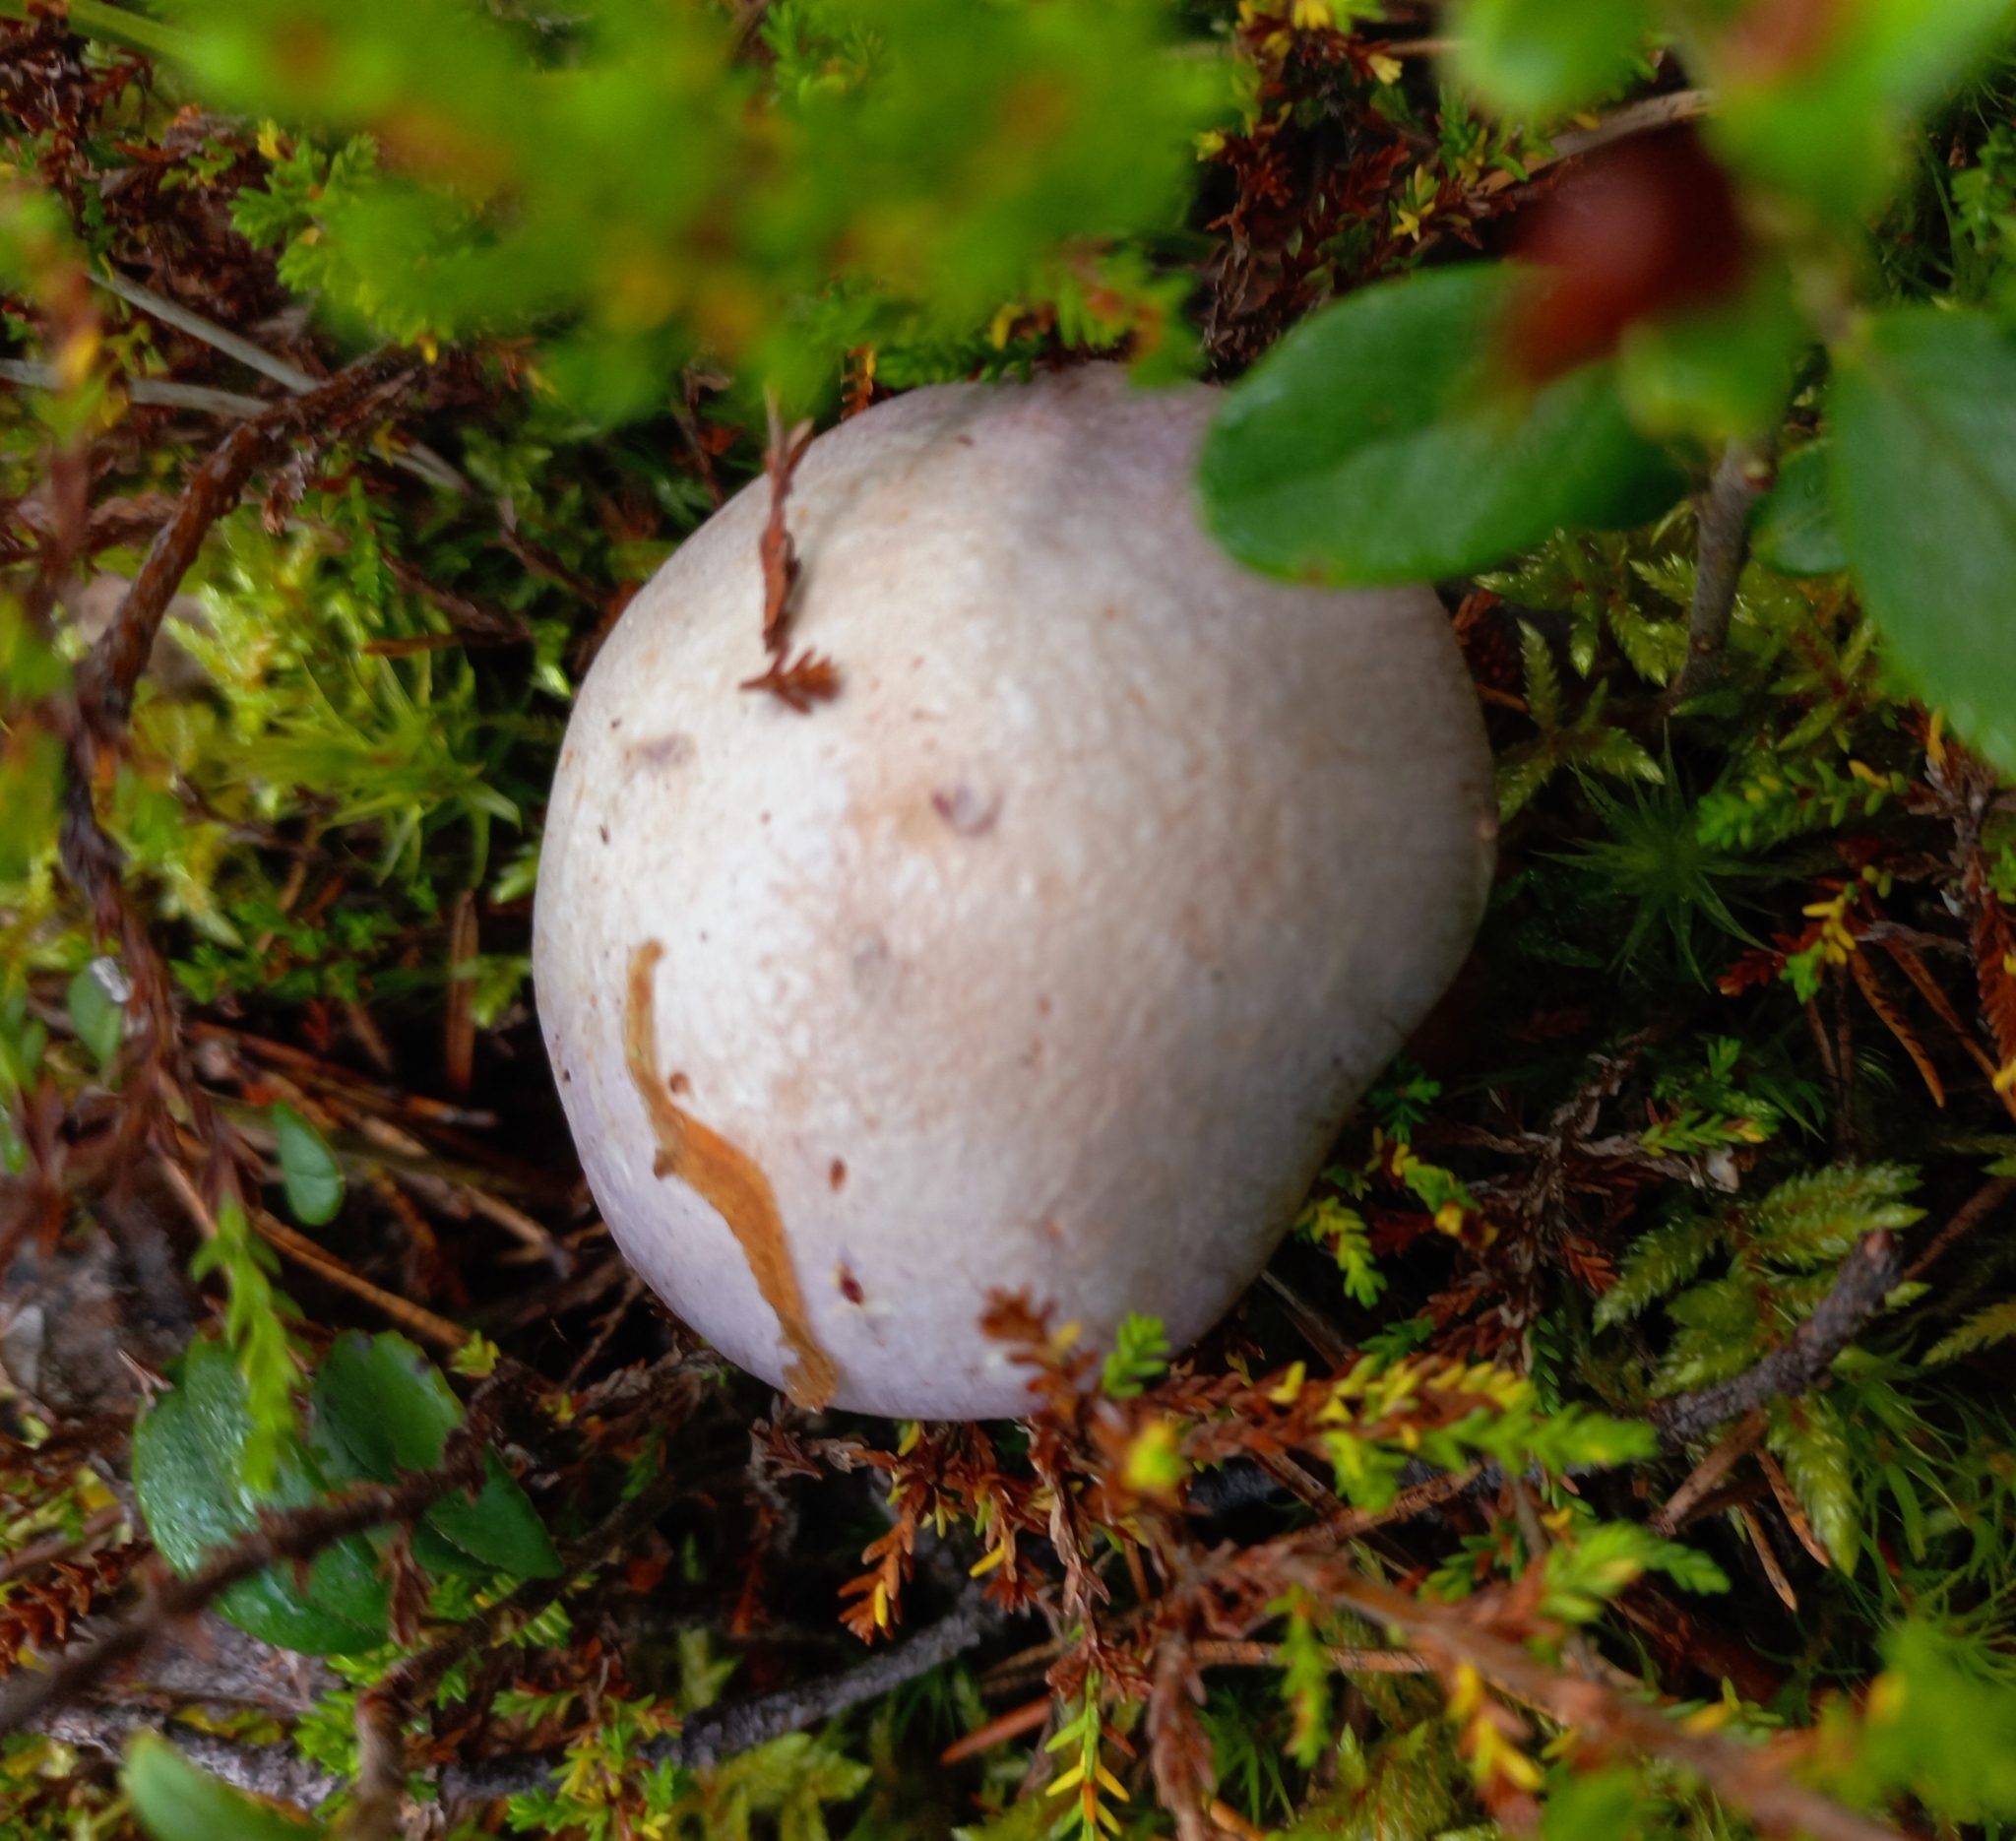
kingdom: Fungi
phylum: Basidiomycota
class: Agaricomycetes
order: Agaricales
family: Cortinariaceae
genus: Cortinarius
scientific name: Cortinarius traganus
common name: Gassy webcap
